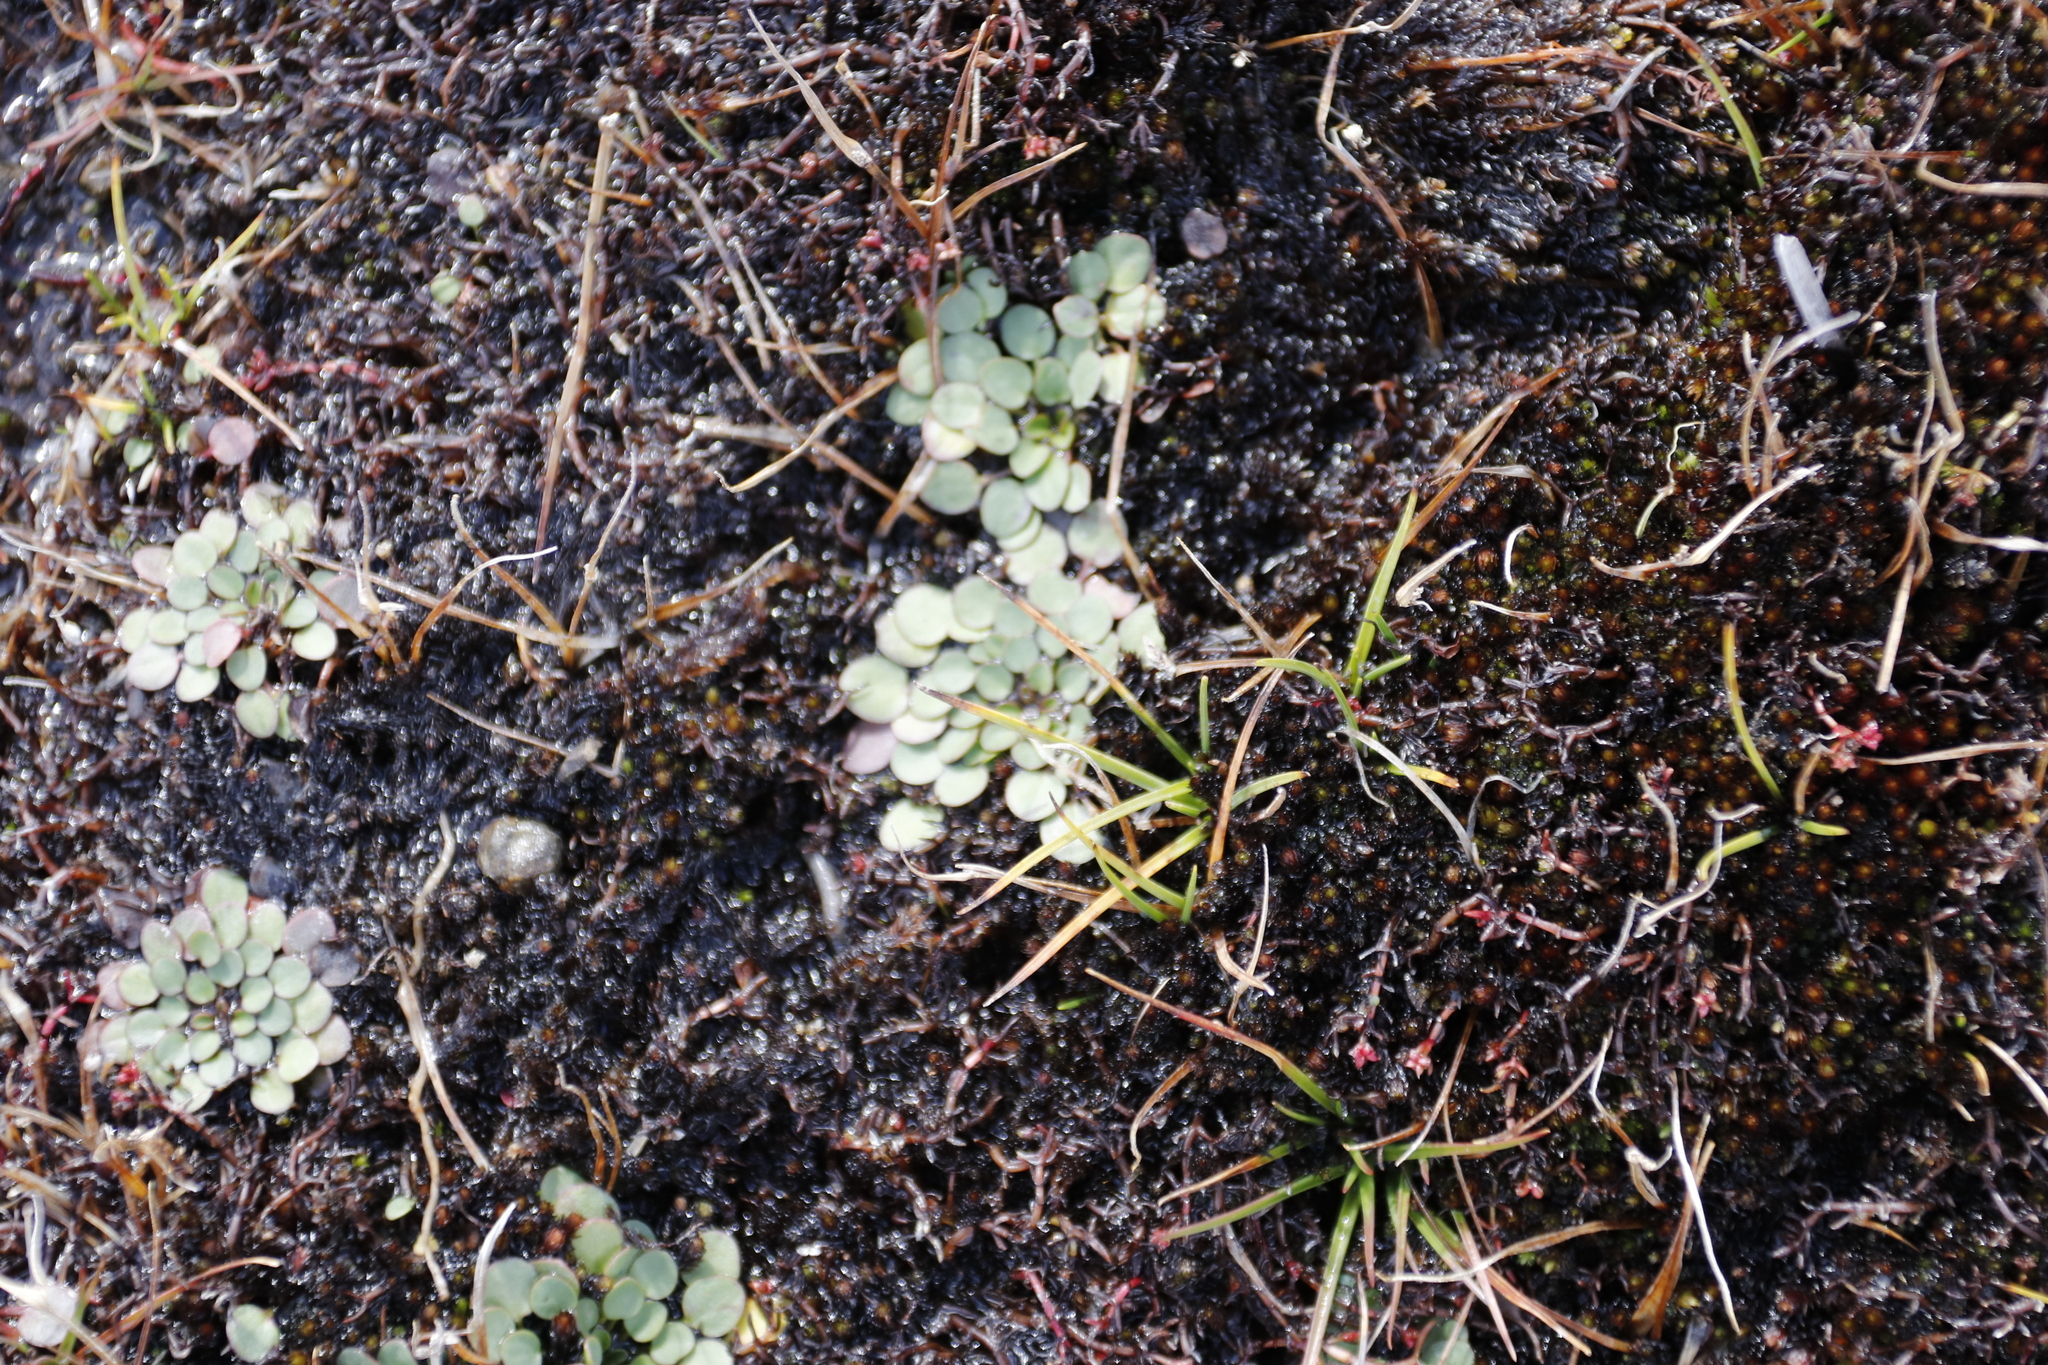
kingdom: Plantae
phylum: Tracheophyta
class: Magnoliopsida
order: Lamiales
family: Scrophulariaceae
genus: Limosella
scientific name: Limosella vesiculosa
